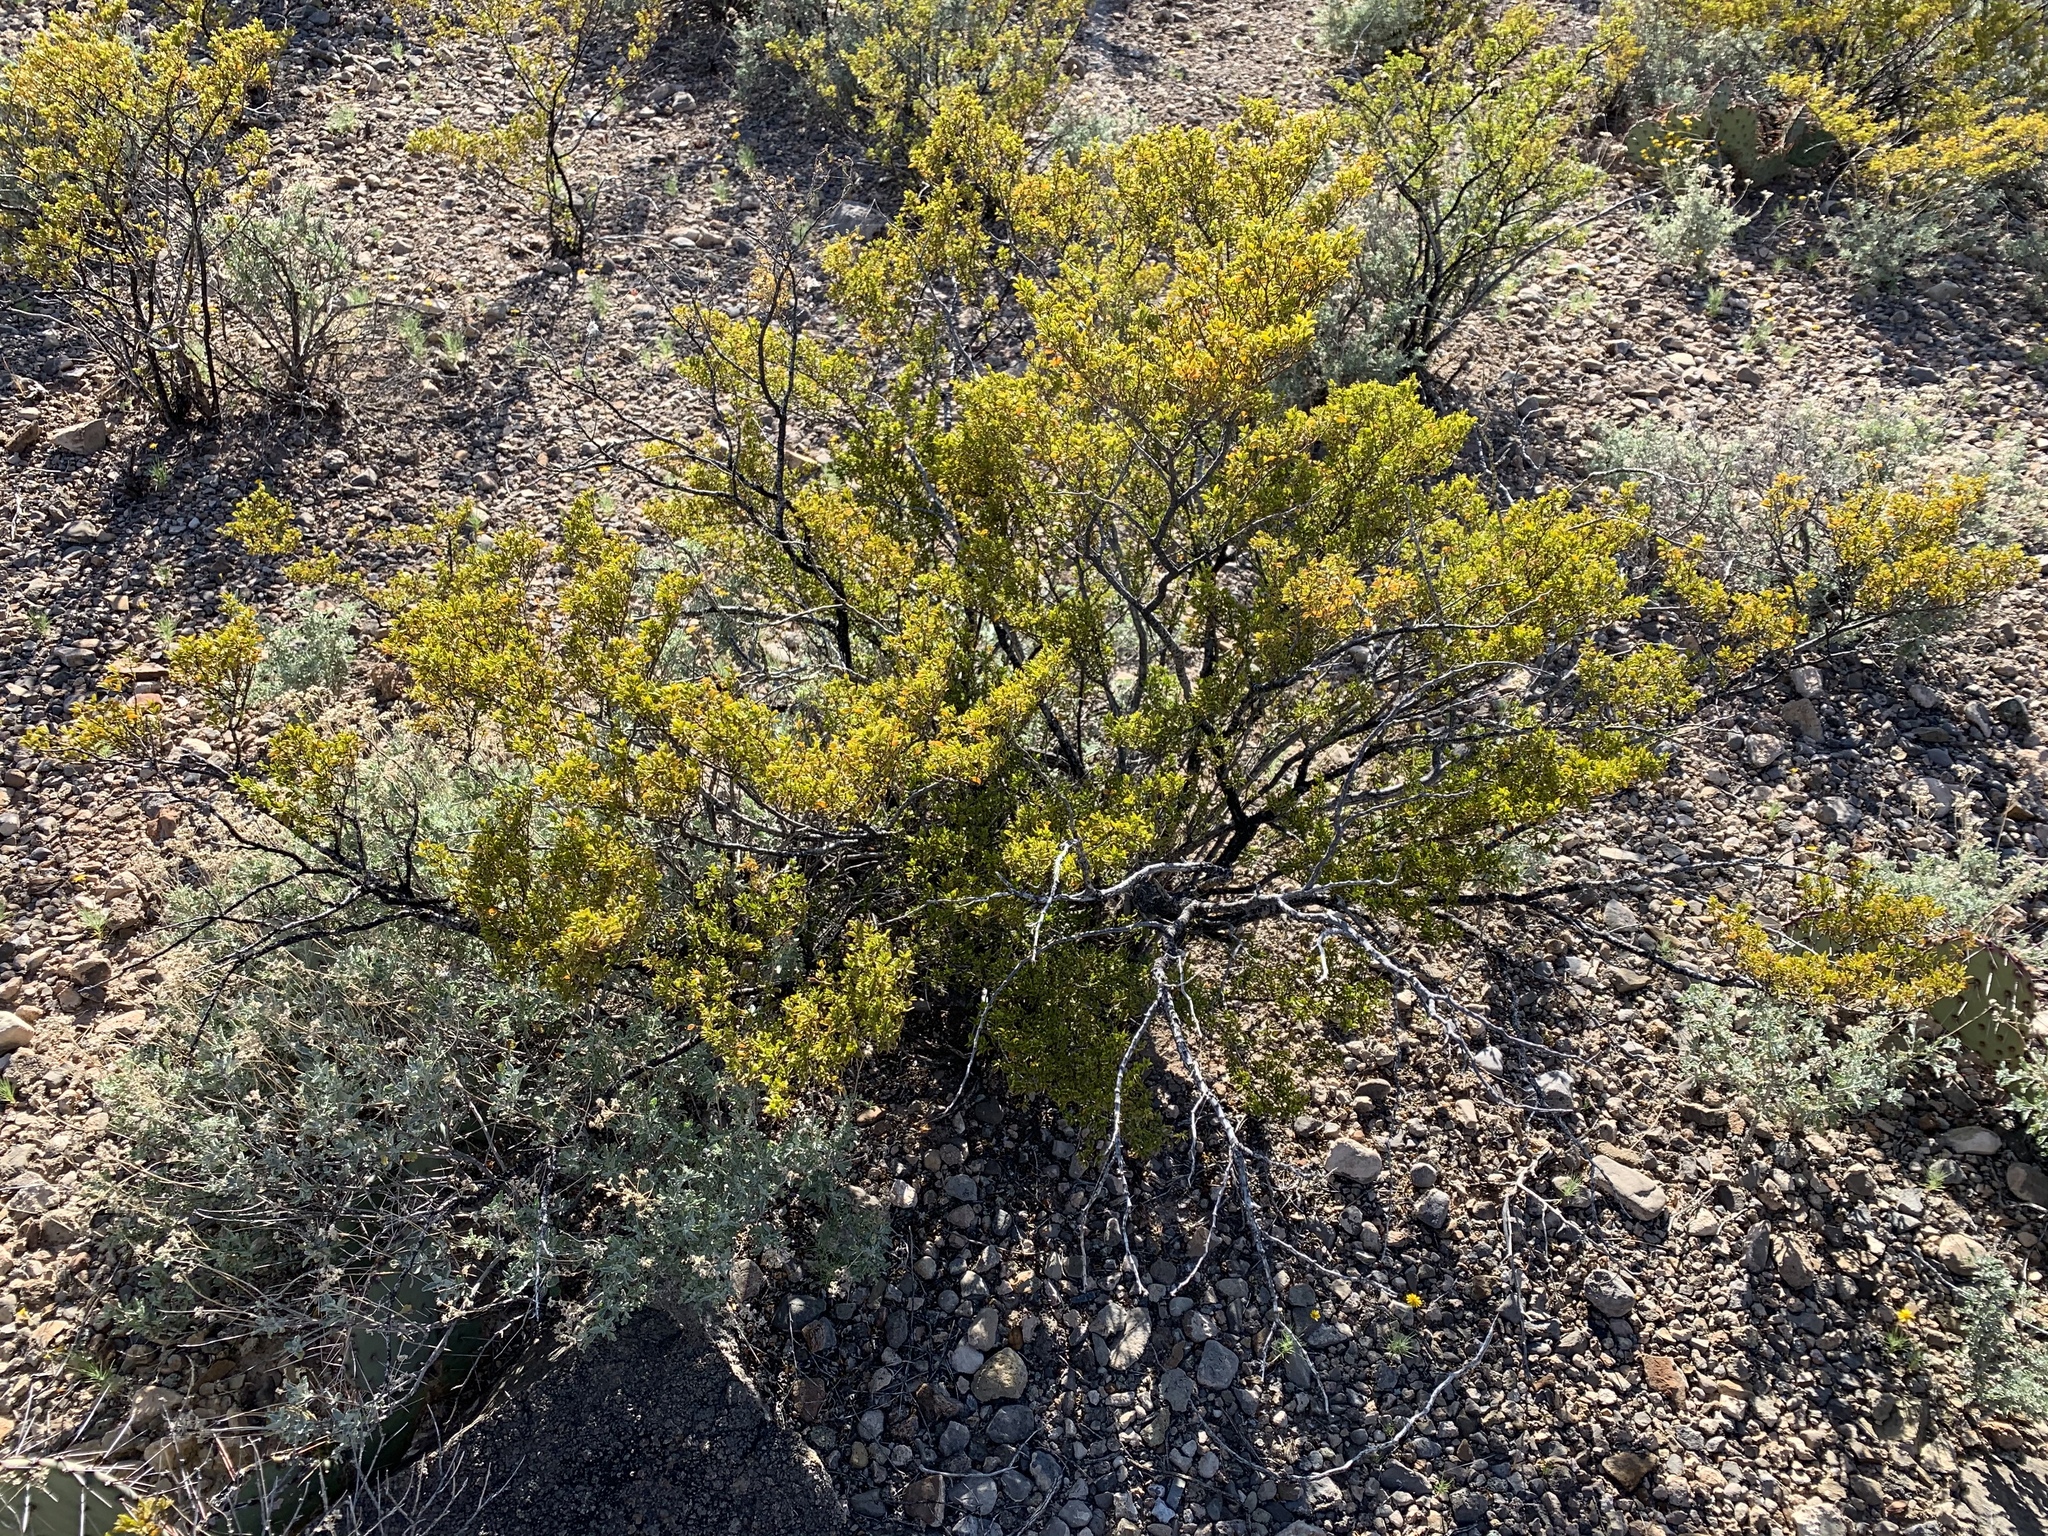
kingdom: Plantae
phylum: Tracheophyta
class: Magnoliopsida
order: Zygophyllales
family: Zygophyllaceae
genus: Larrea
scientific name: Larrea tridentata
